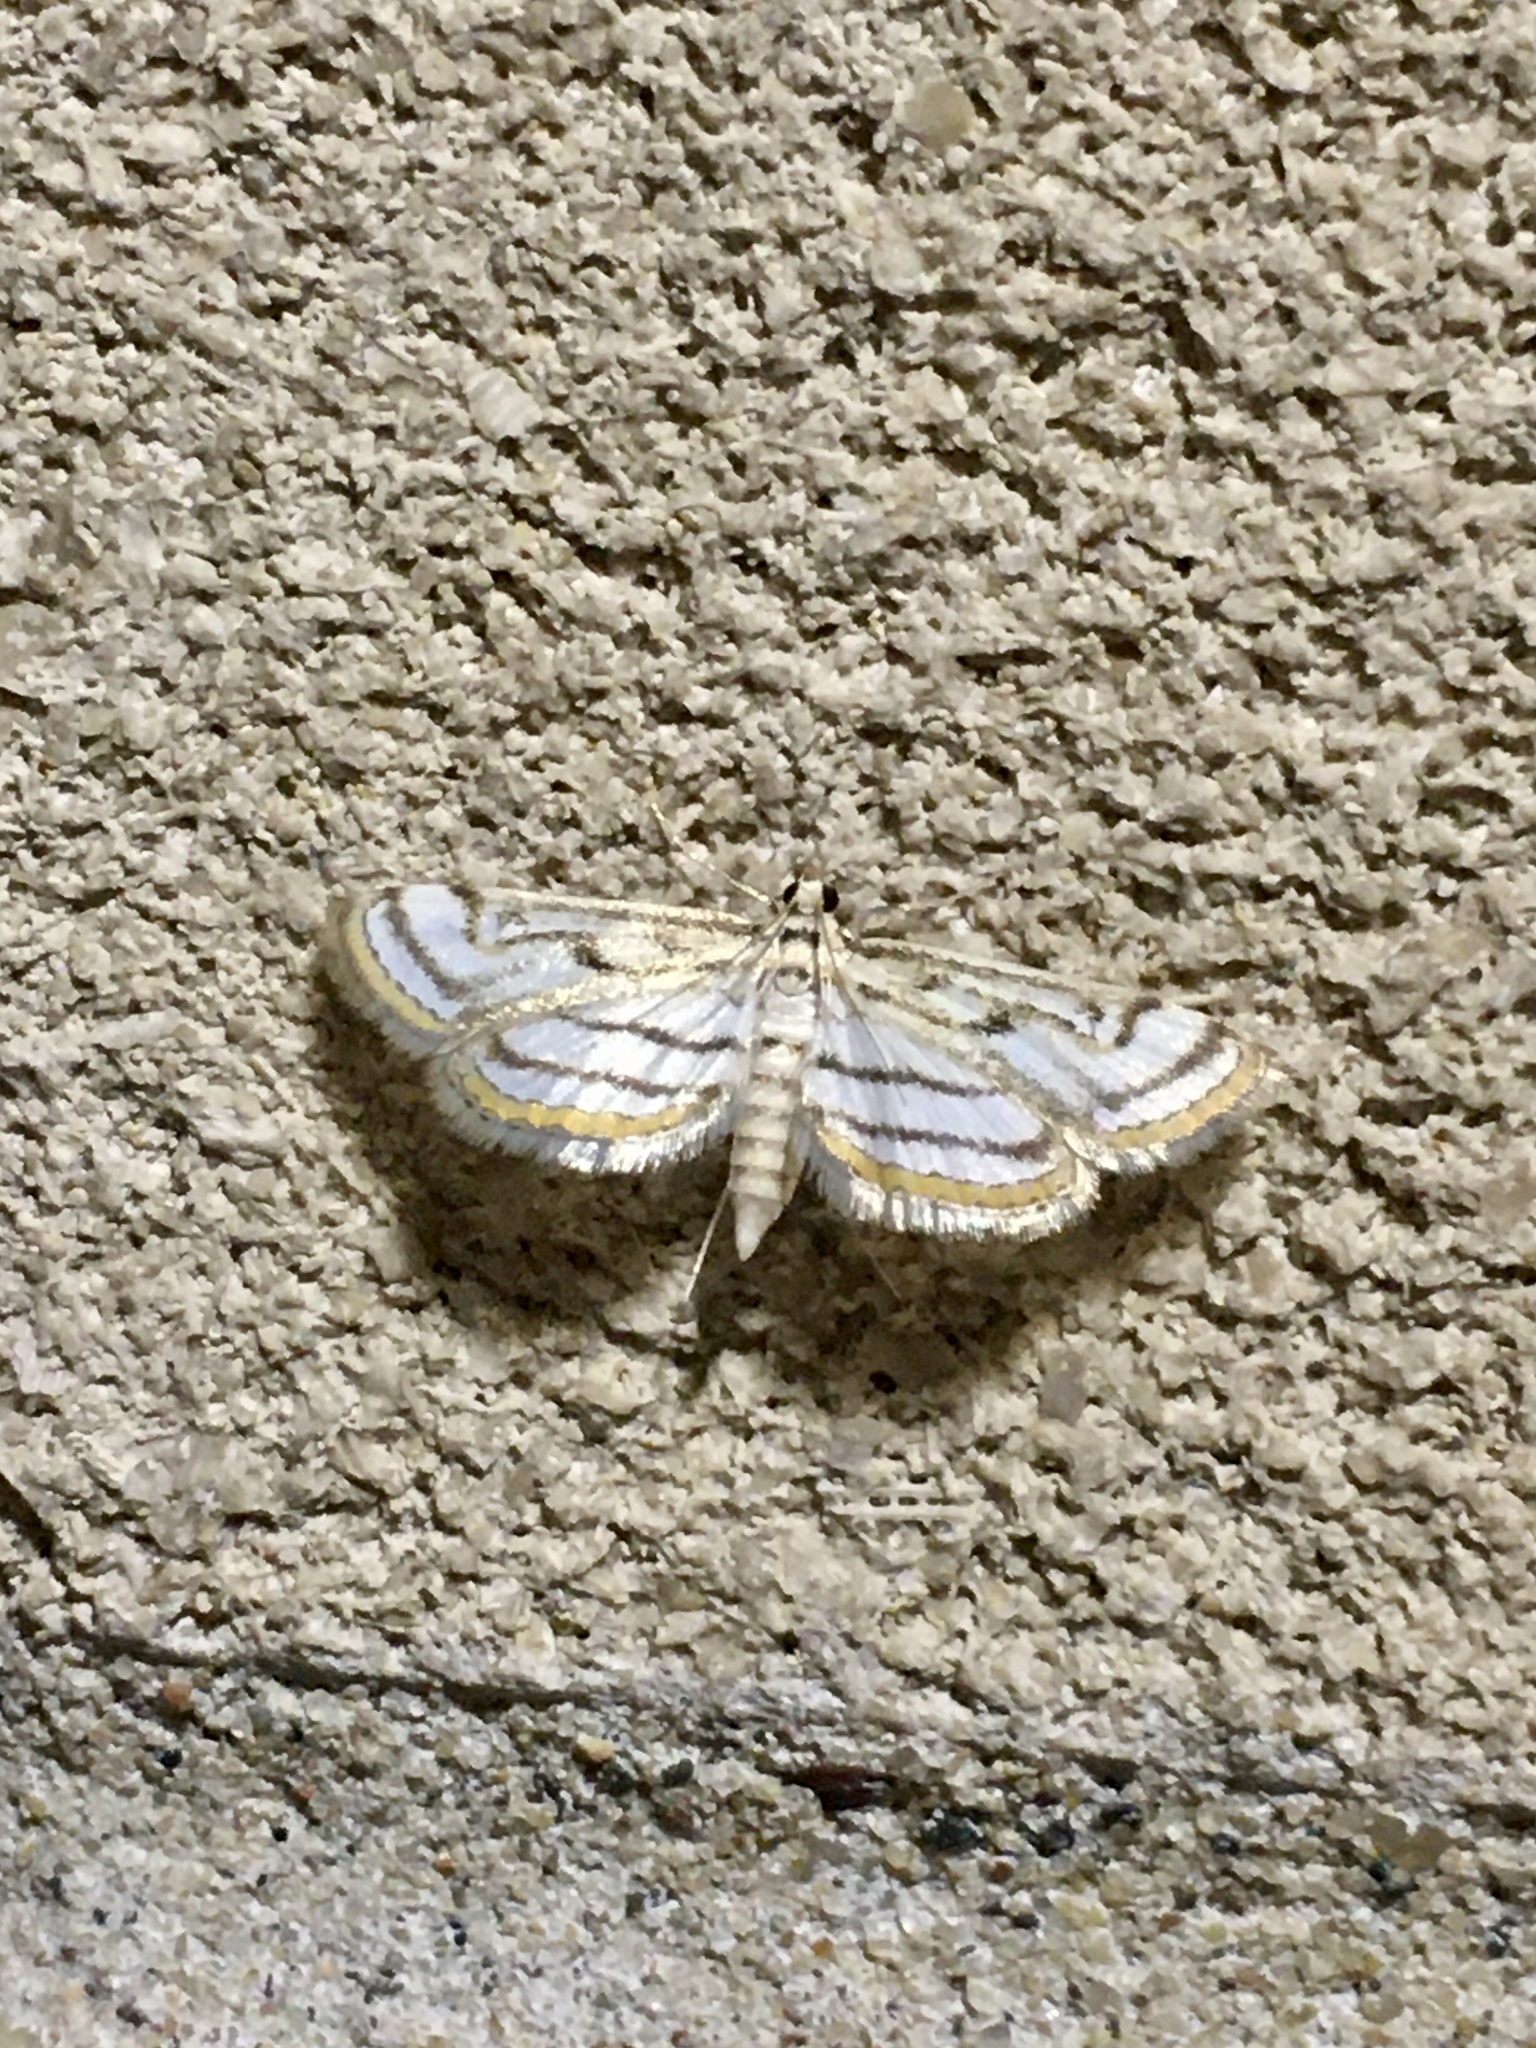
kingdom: Animalia
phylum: Arthropoda
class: Insecta
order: Lepidoptera
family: Crambidae
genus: Parapoynx
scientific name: Parapoynx badiusalis
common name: Chestnut-marked pondweed moth
